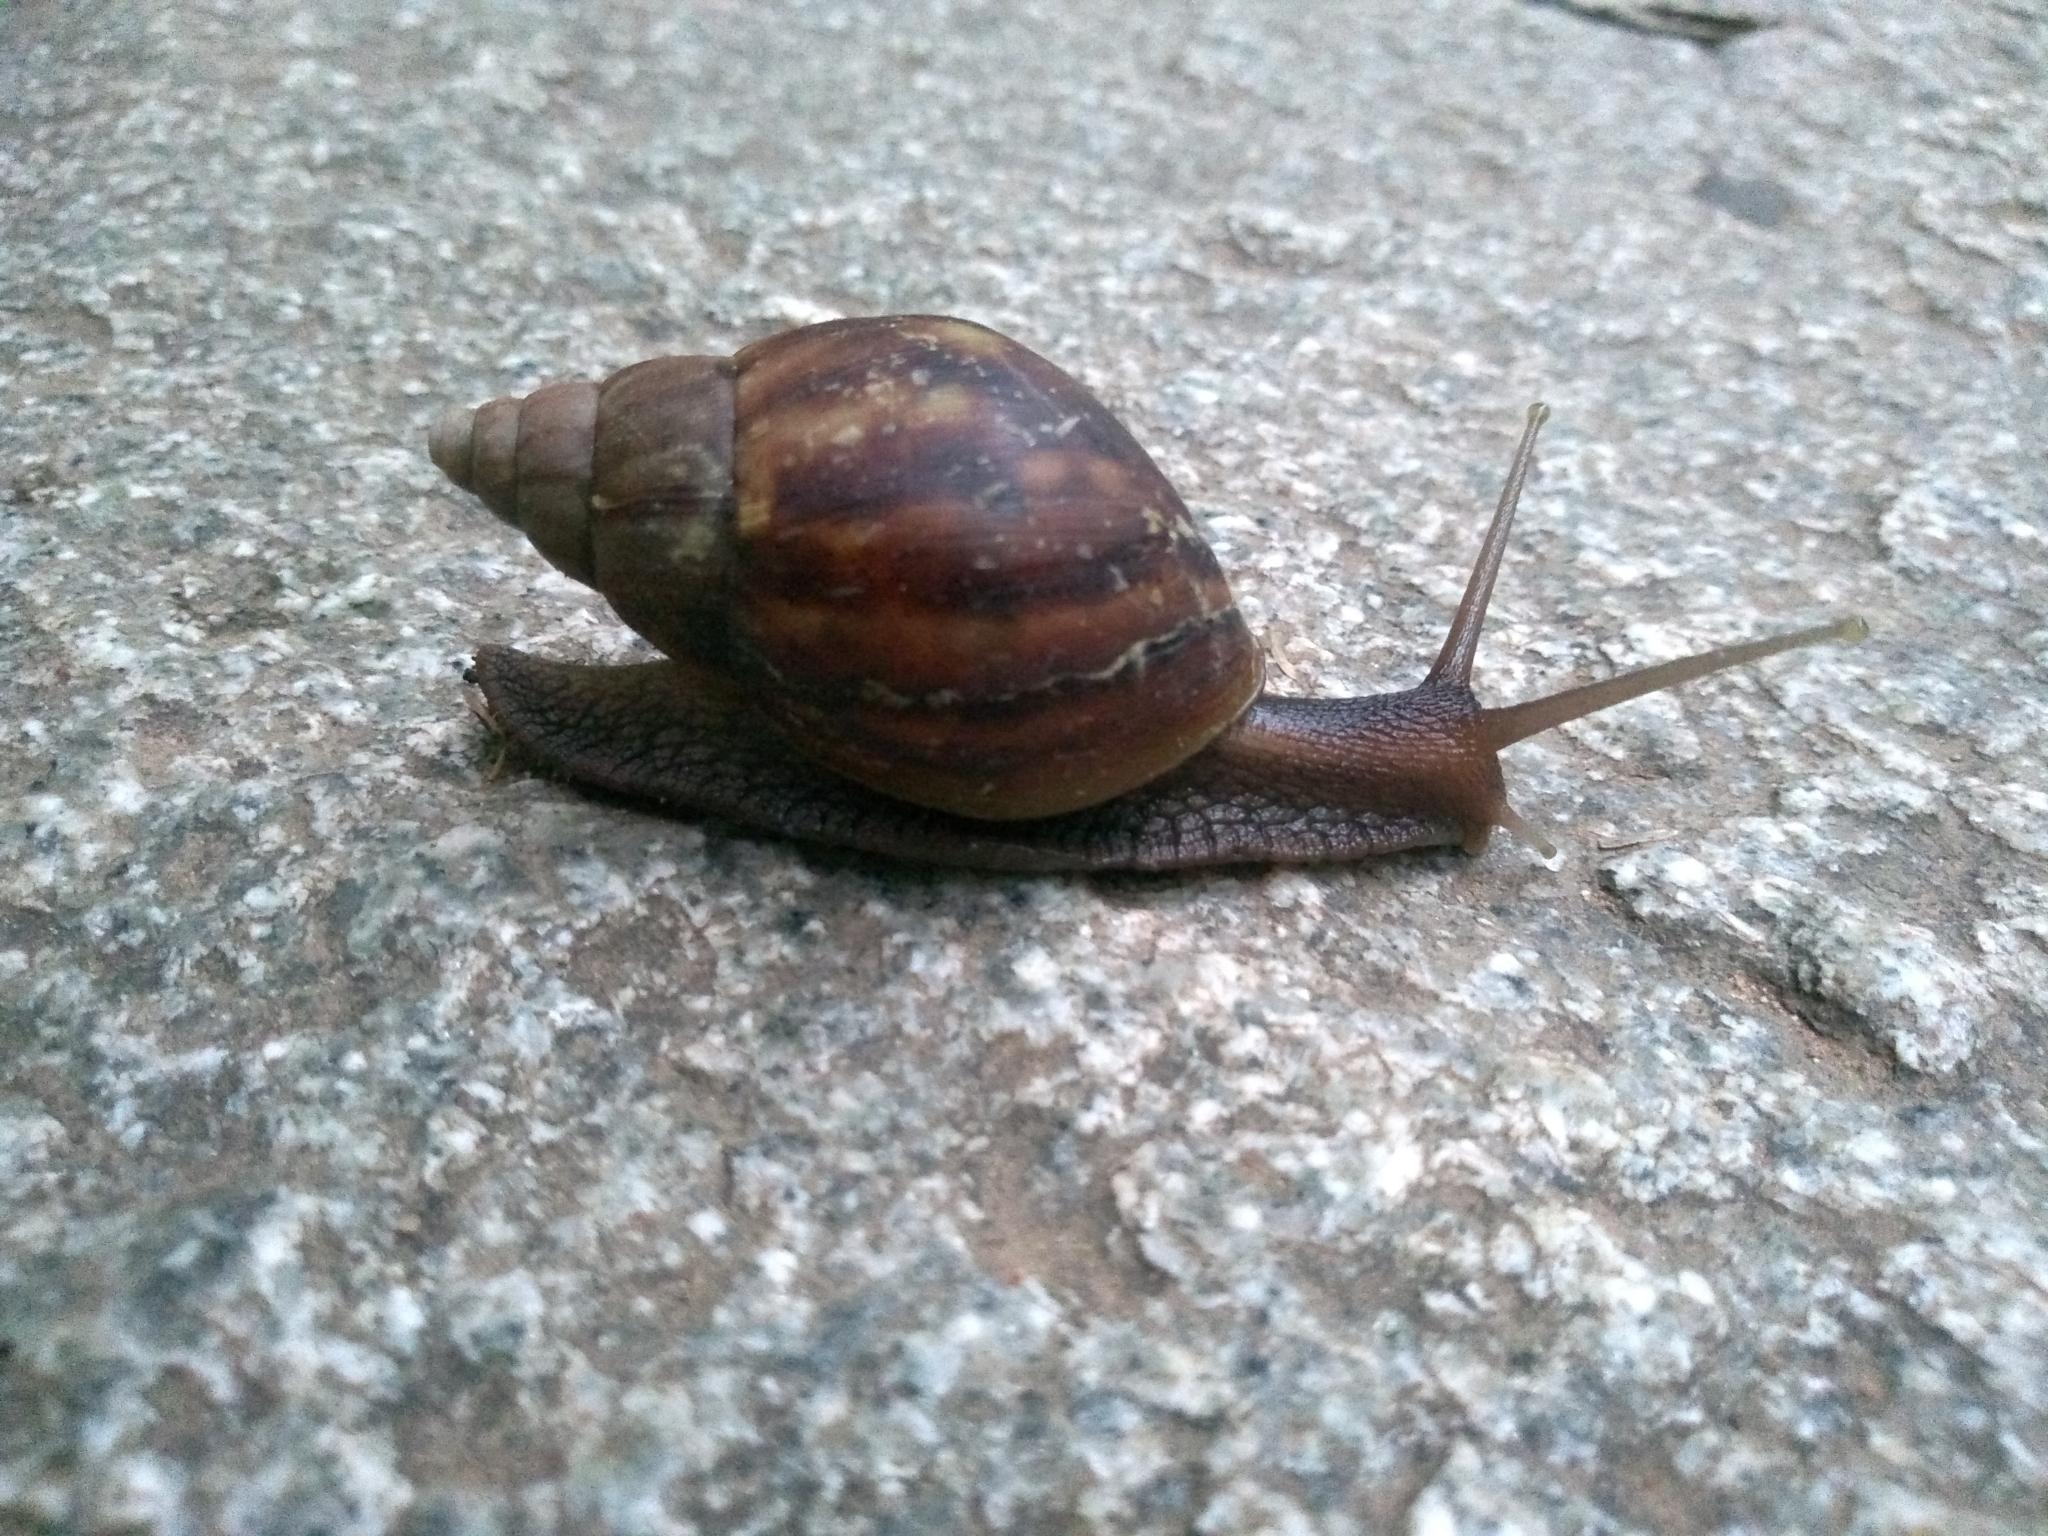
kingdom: Animalia
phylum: Mollusca
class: Gastropoda
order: Stylommatophora
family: Achatinidae
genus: Lissachatina
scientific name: Lissachatina fulica
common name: Giant african snail
